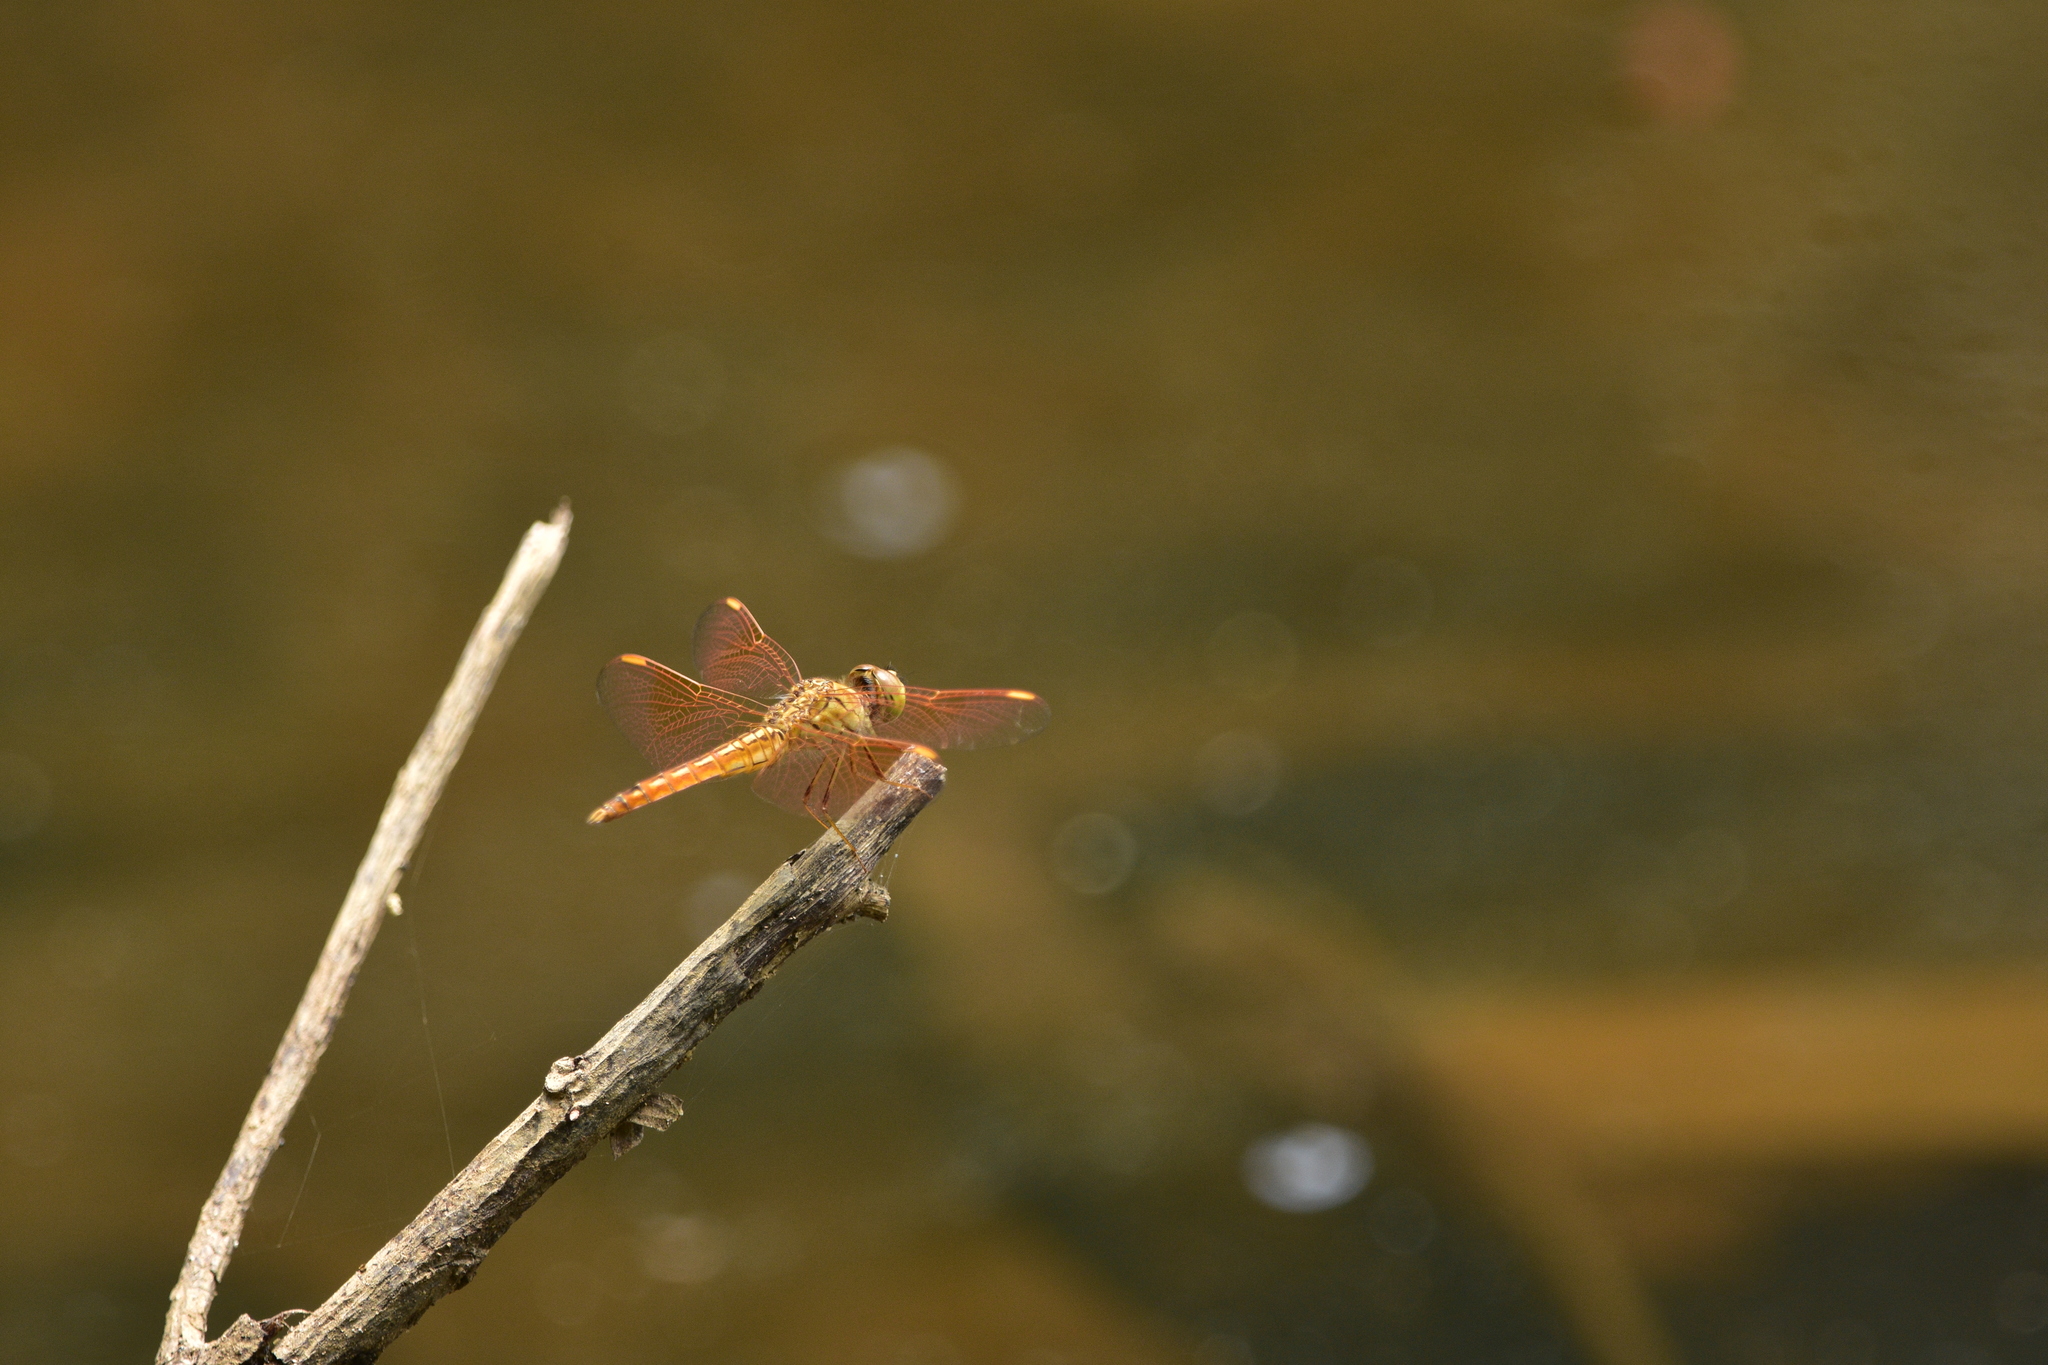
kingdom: Animalia
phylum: Arthropoda
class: Insecta
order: Odonata
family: Libellulidae
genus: Brachythemis
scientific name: Brachythemis contaminata
